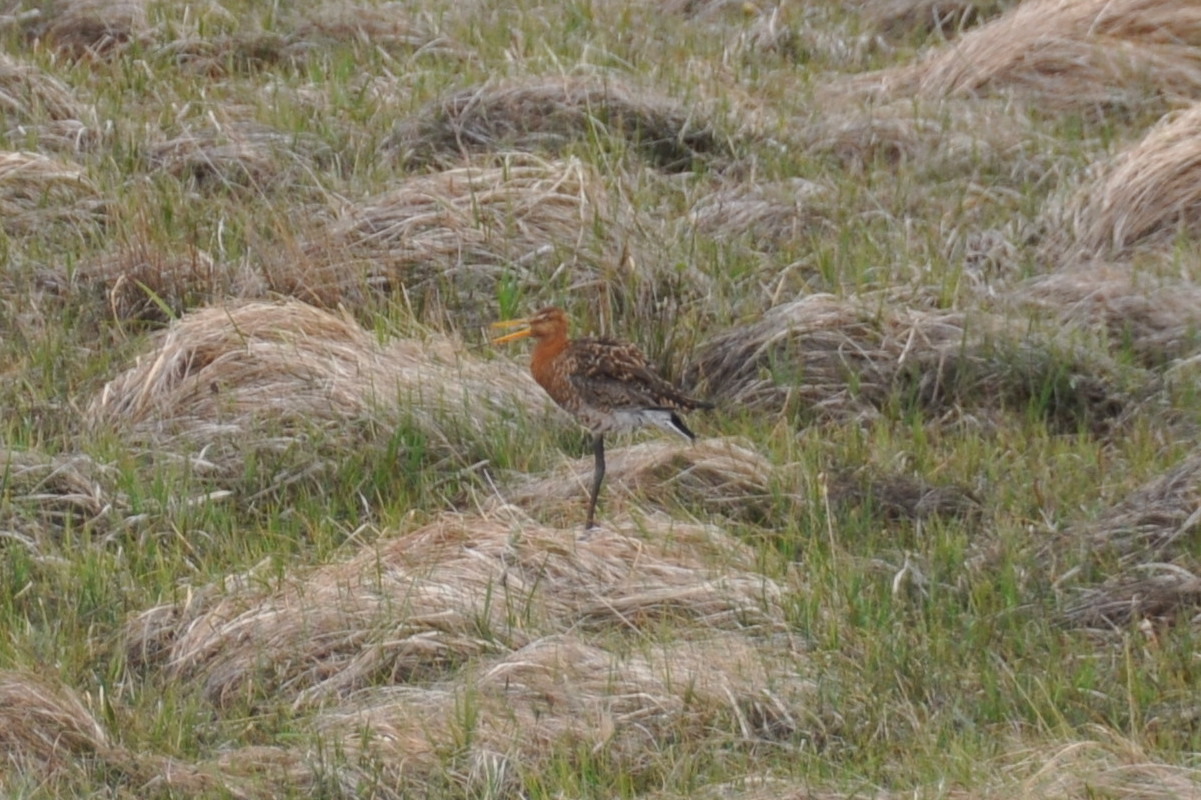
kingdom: Animalia
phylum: Chordata
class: Aves
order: Charadriiformes
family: Scolopacidae
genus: Limosa
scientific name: Limosa limosa
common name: Black-tailed godwit
